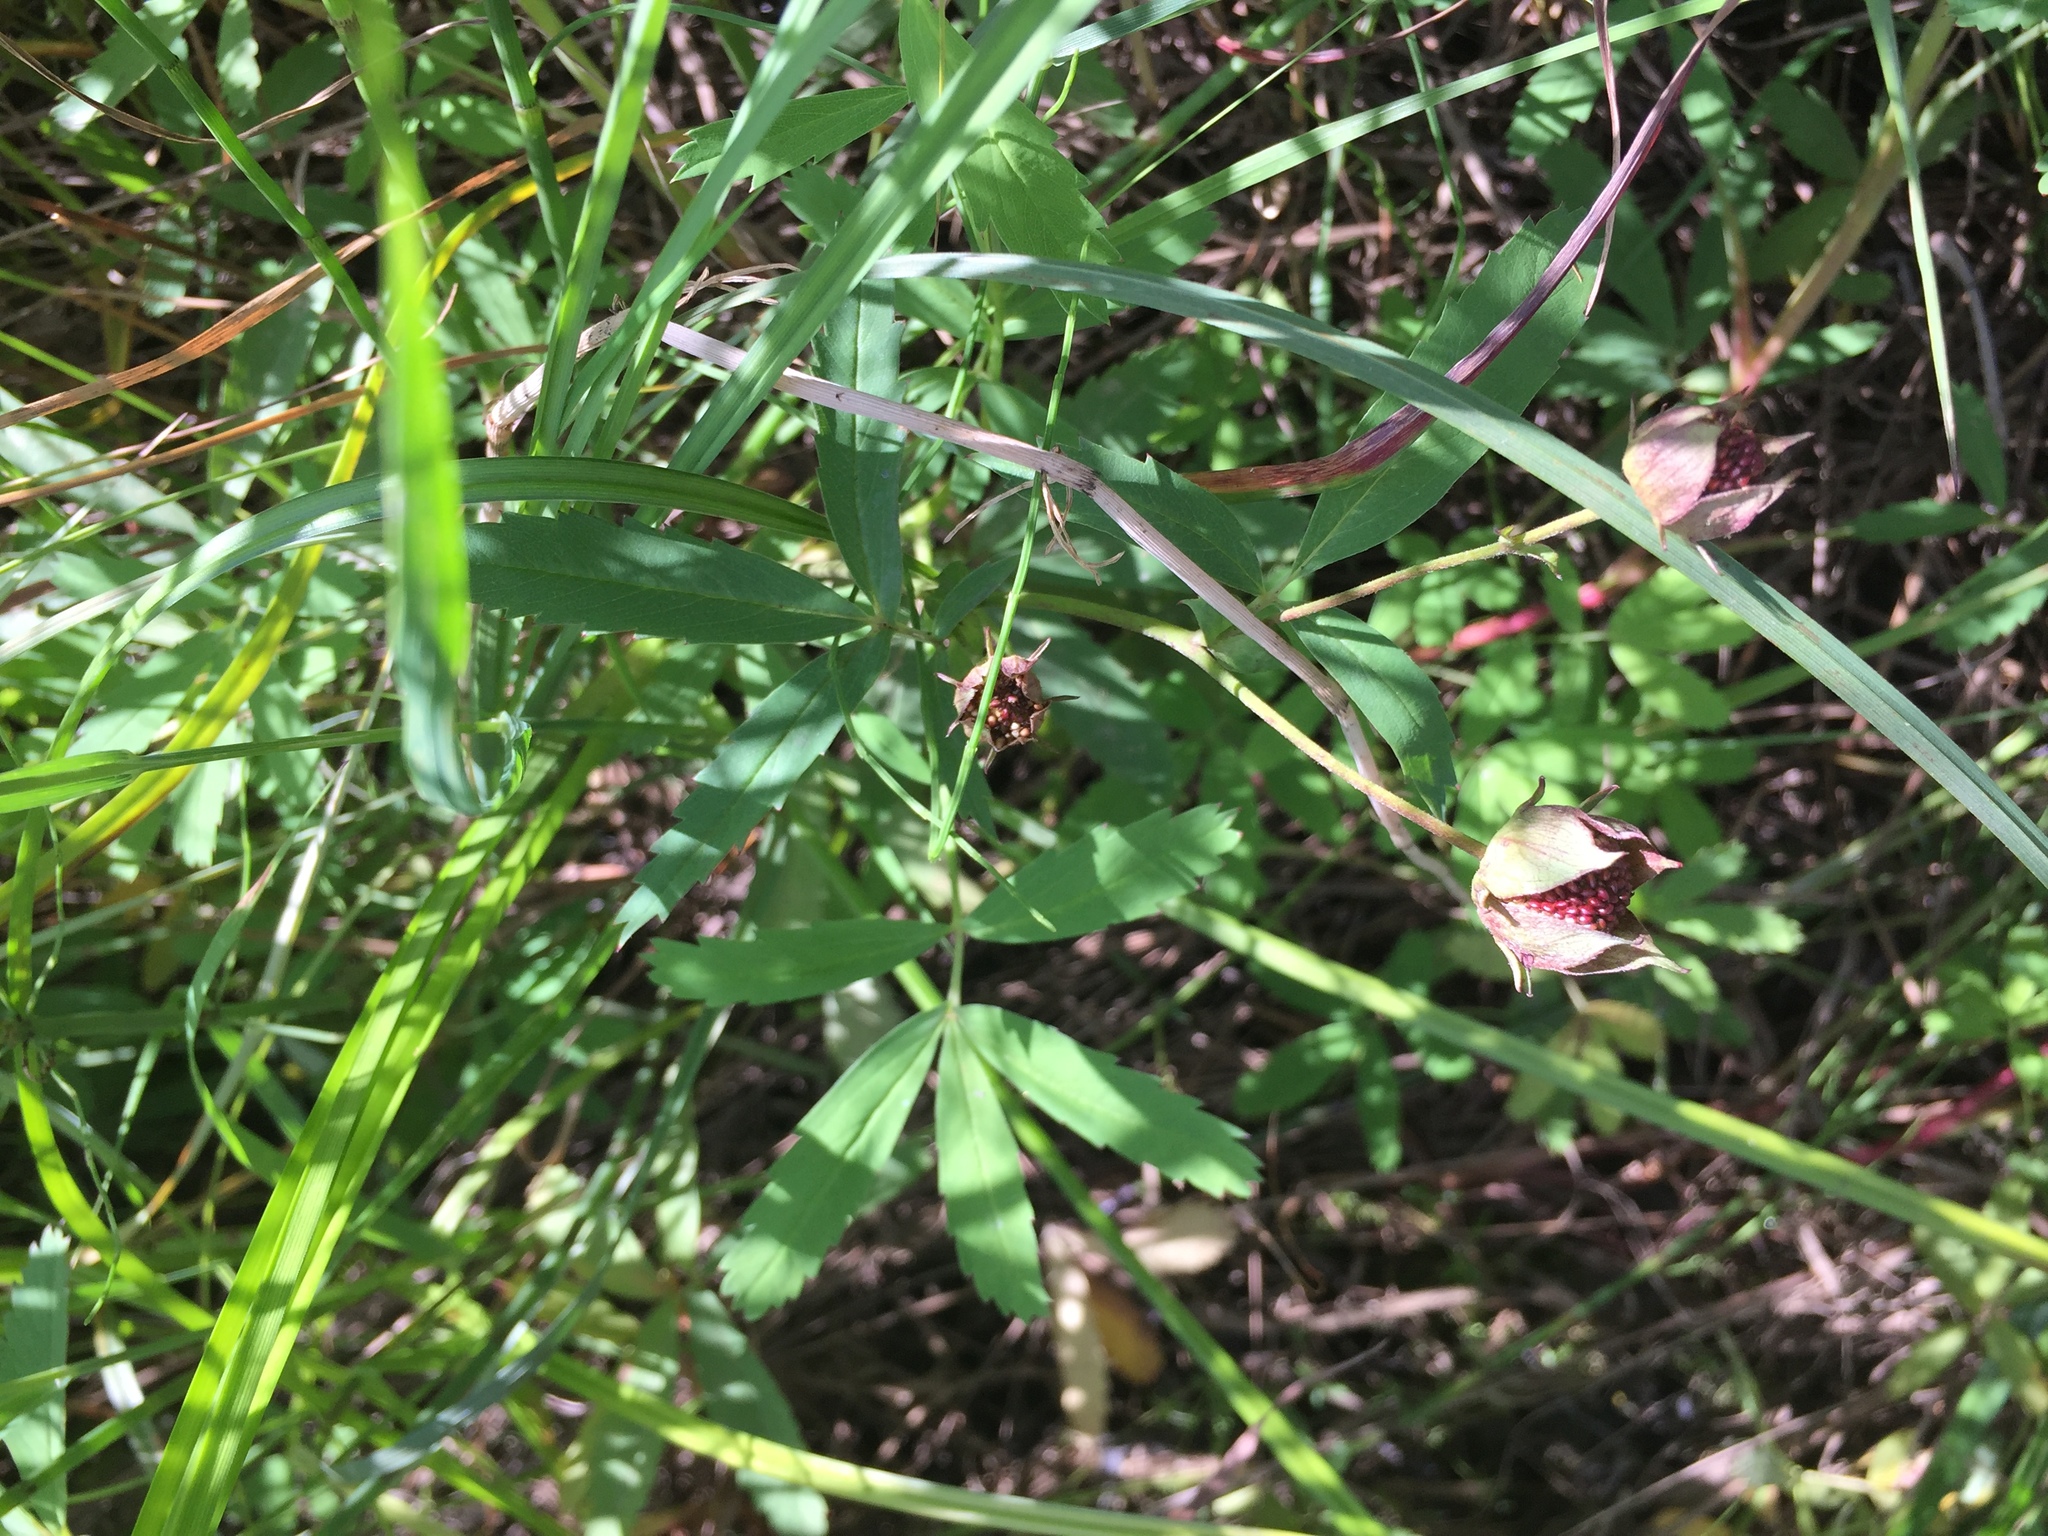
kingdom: Plantae
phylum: Tracheophyta
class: Magnoliopsida
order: Rosales
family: Rosaceae
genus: Comarum
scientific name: Comarum palustre
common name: Marsh cinquefoil
